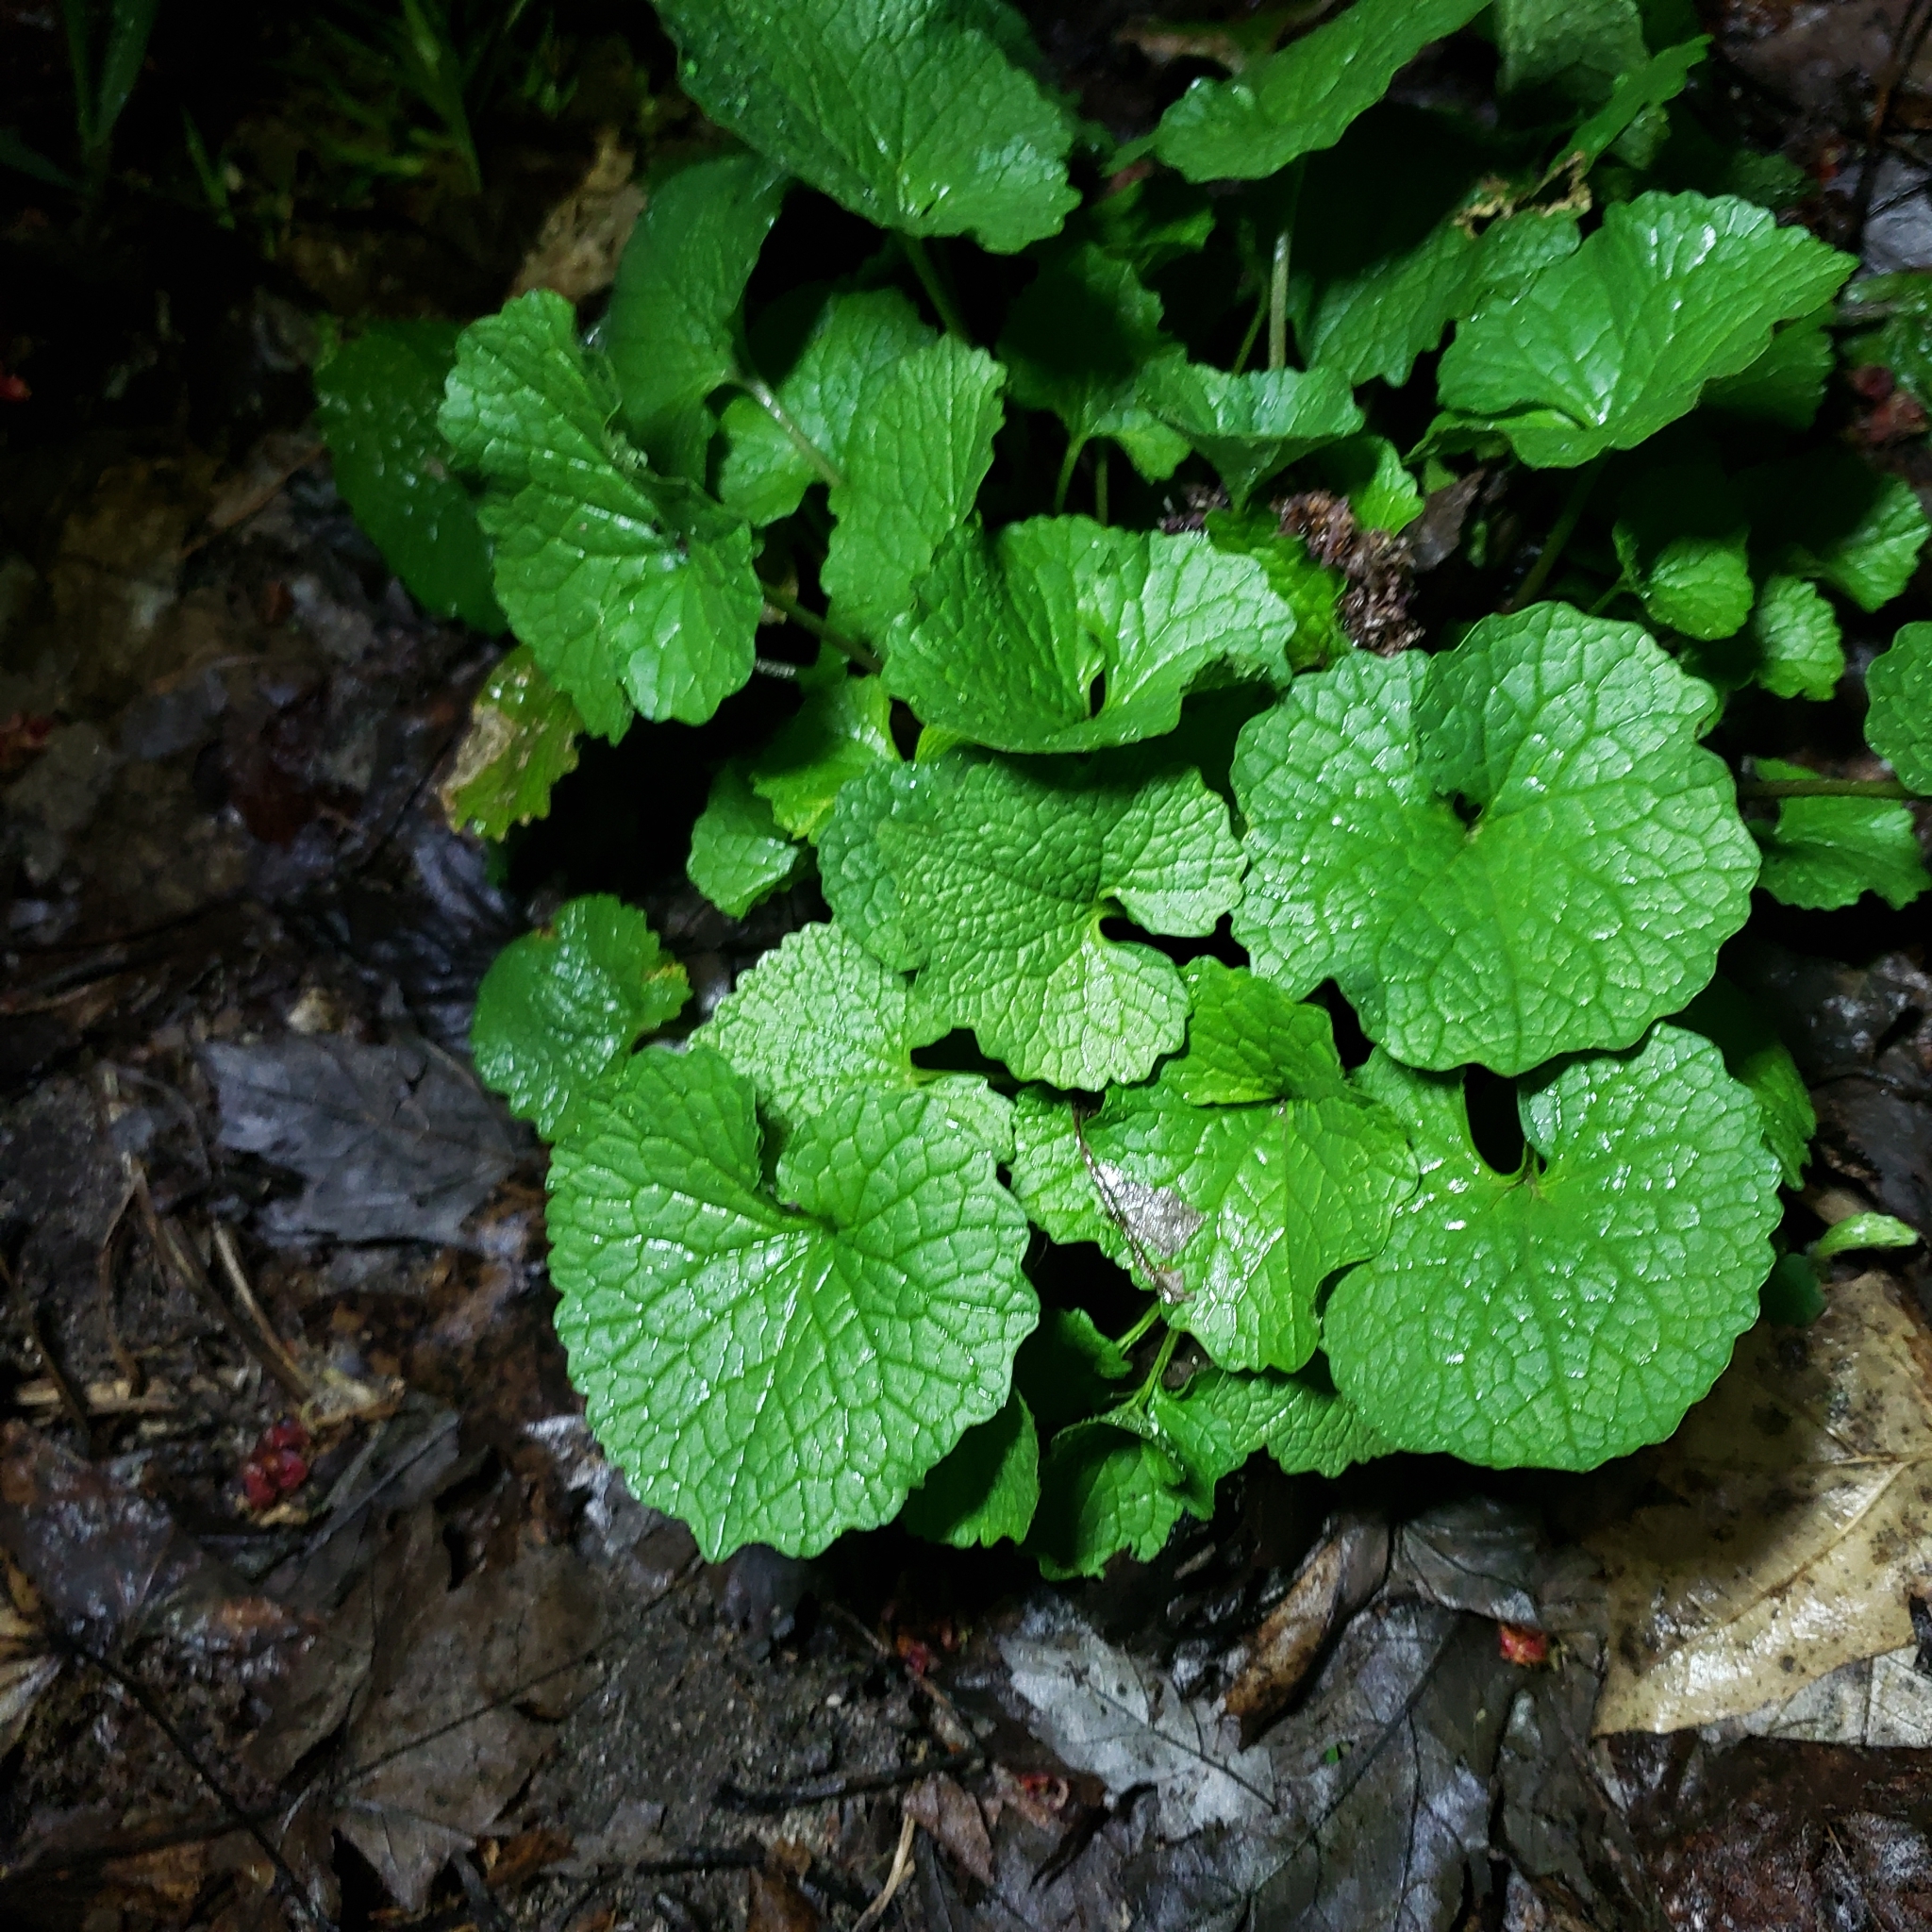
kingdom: Plantae
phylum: Tracheophyta
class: Magnoliopsida
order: Brassicales
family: Brassicaceae
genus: Alliaria
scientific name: Alliaria petiolata
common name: Garlic mustard
